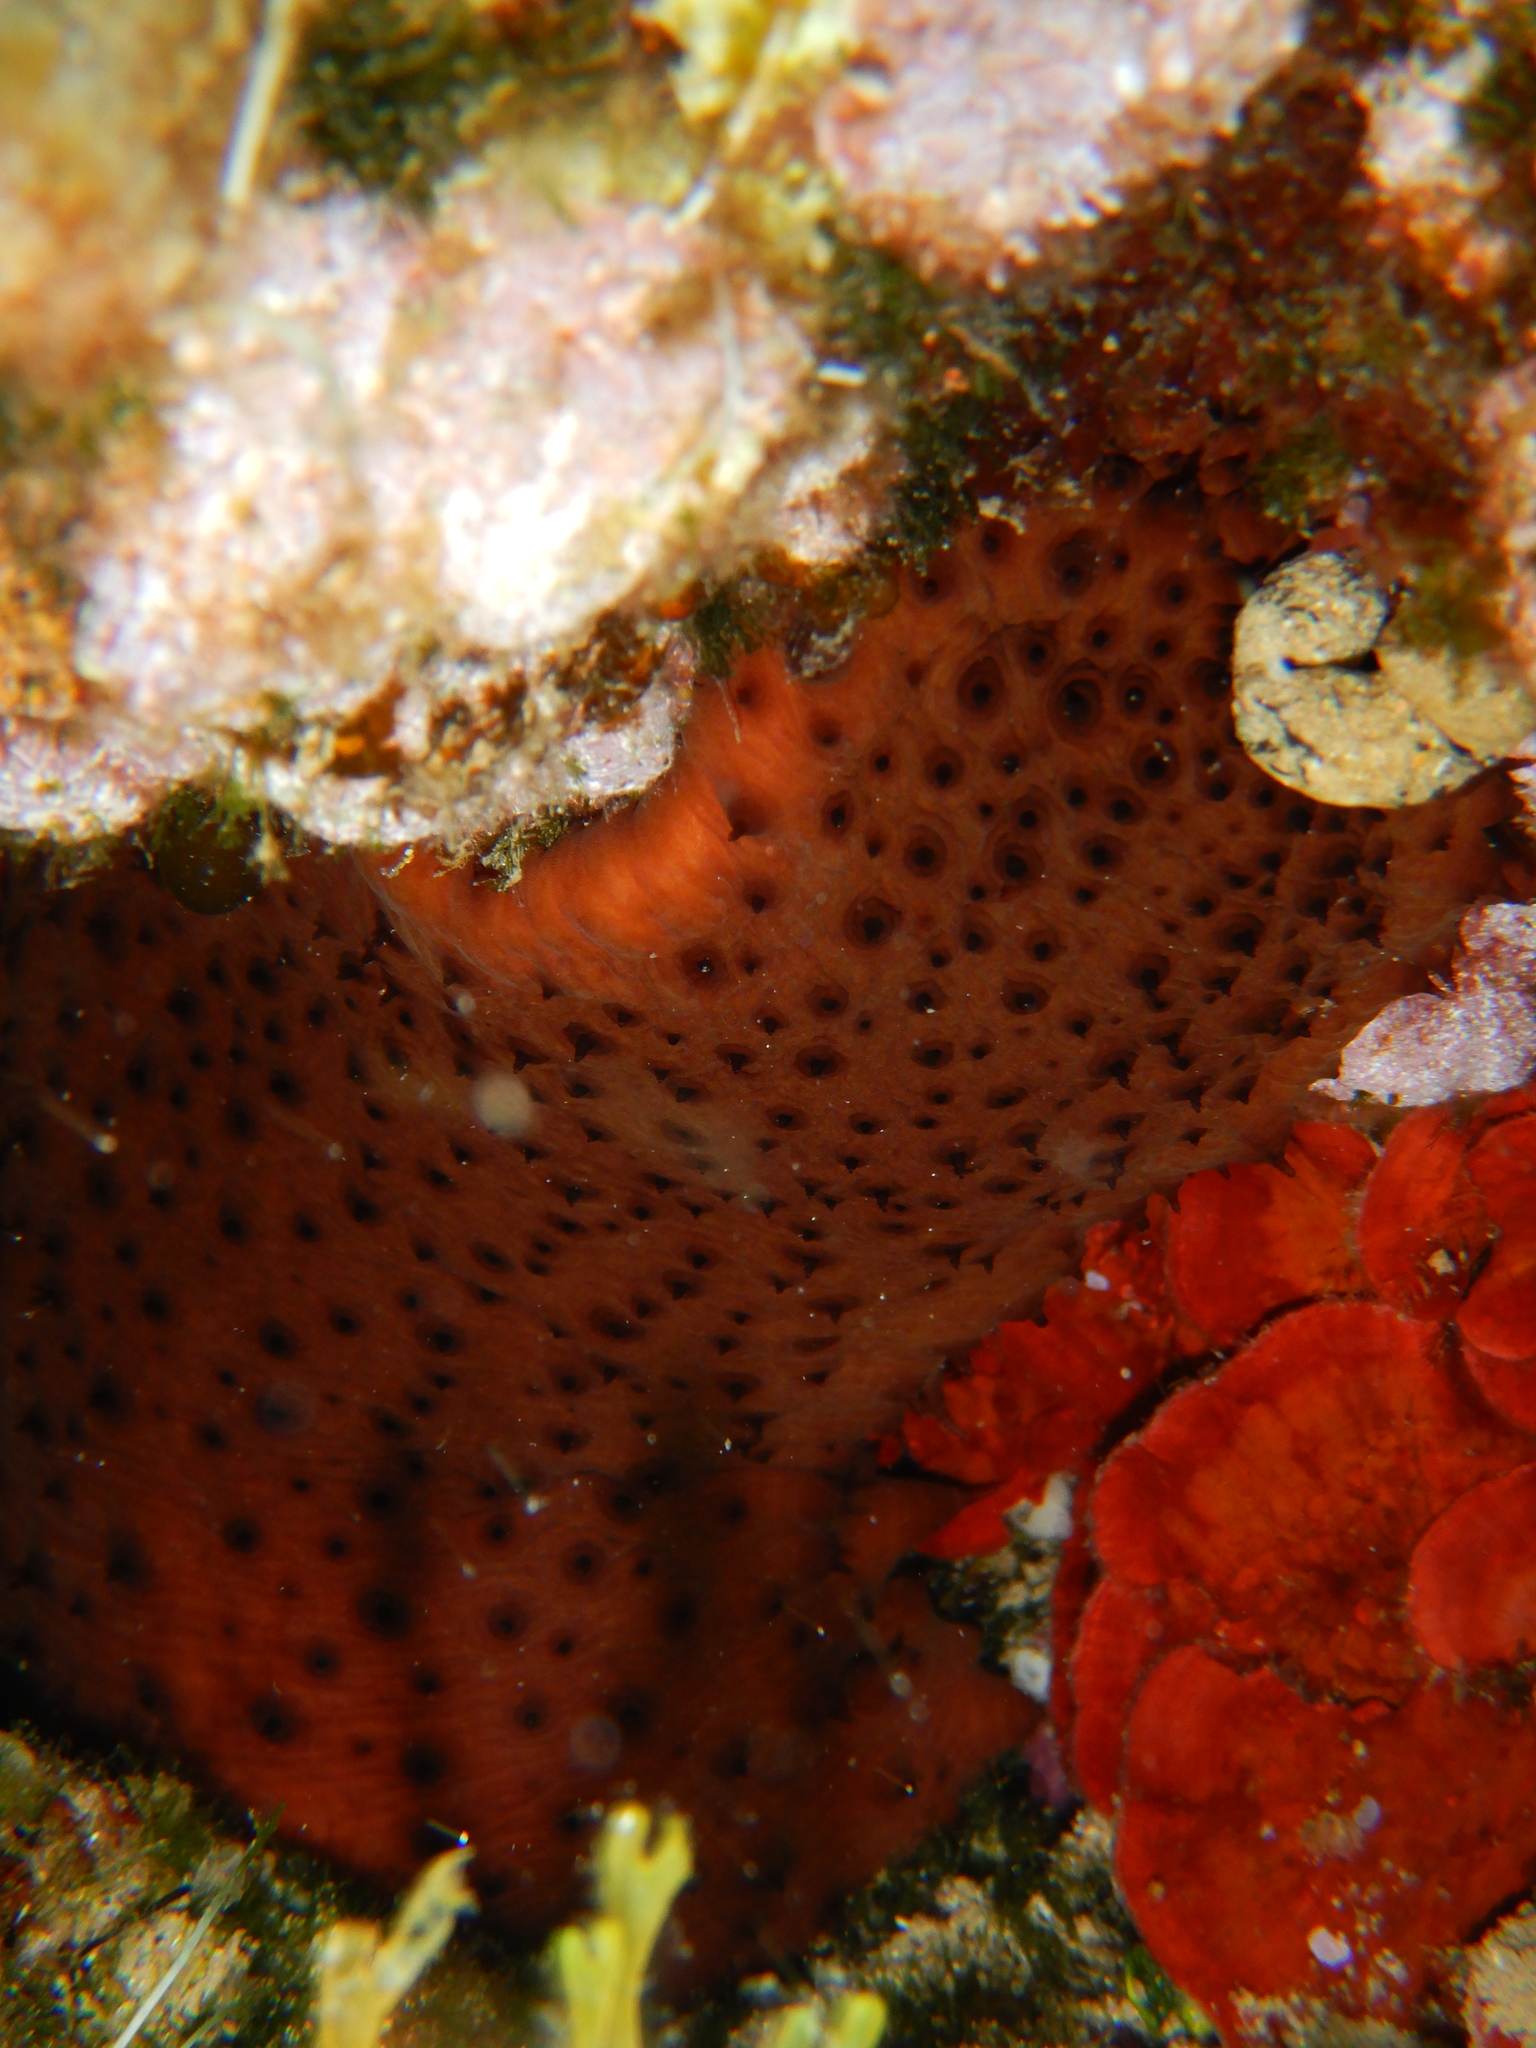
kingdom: Animalia
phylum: Echinodermata
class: Holothuroidea
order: Holothuriida
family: Holothuriidae
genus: Holothuria
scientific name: Holothuria sanctori
